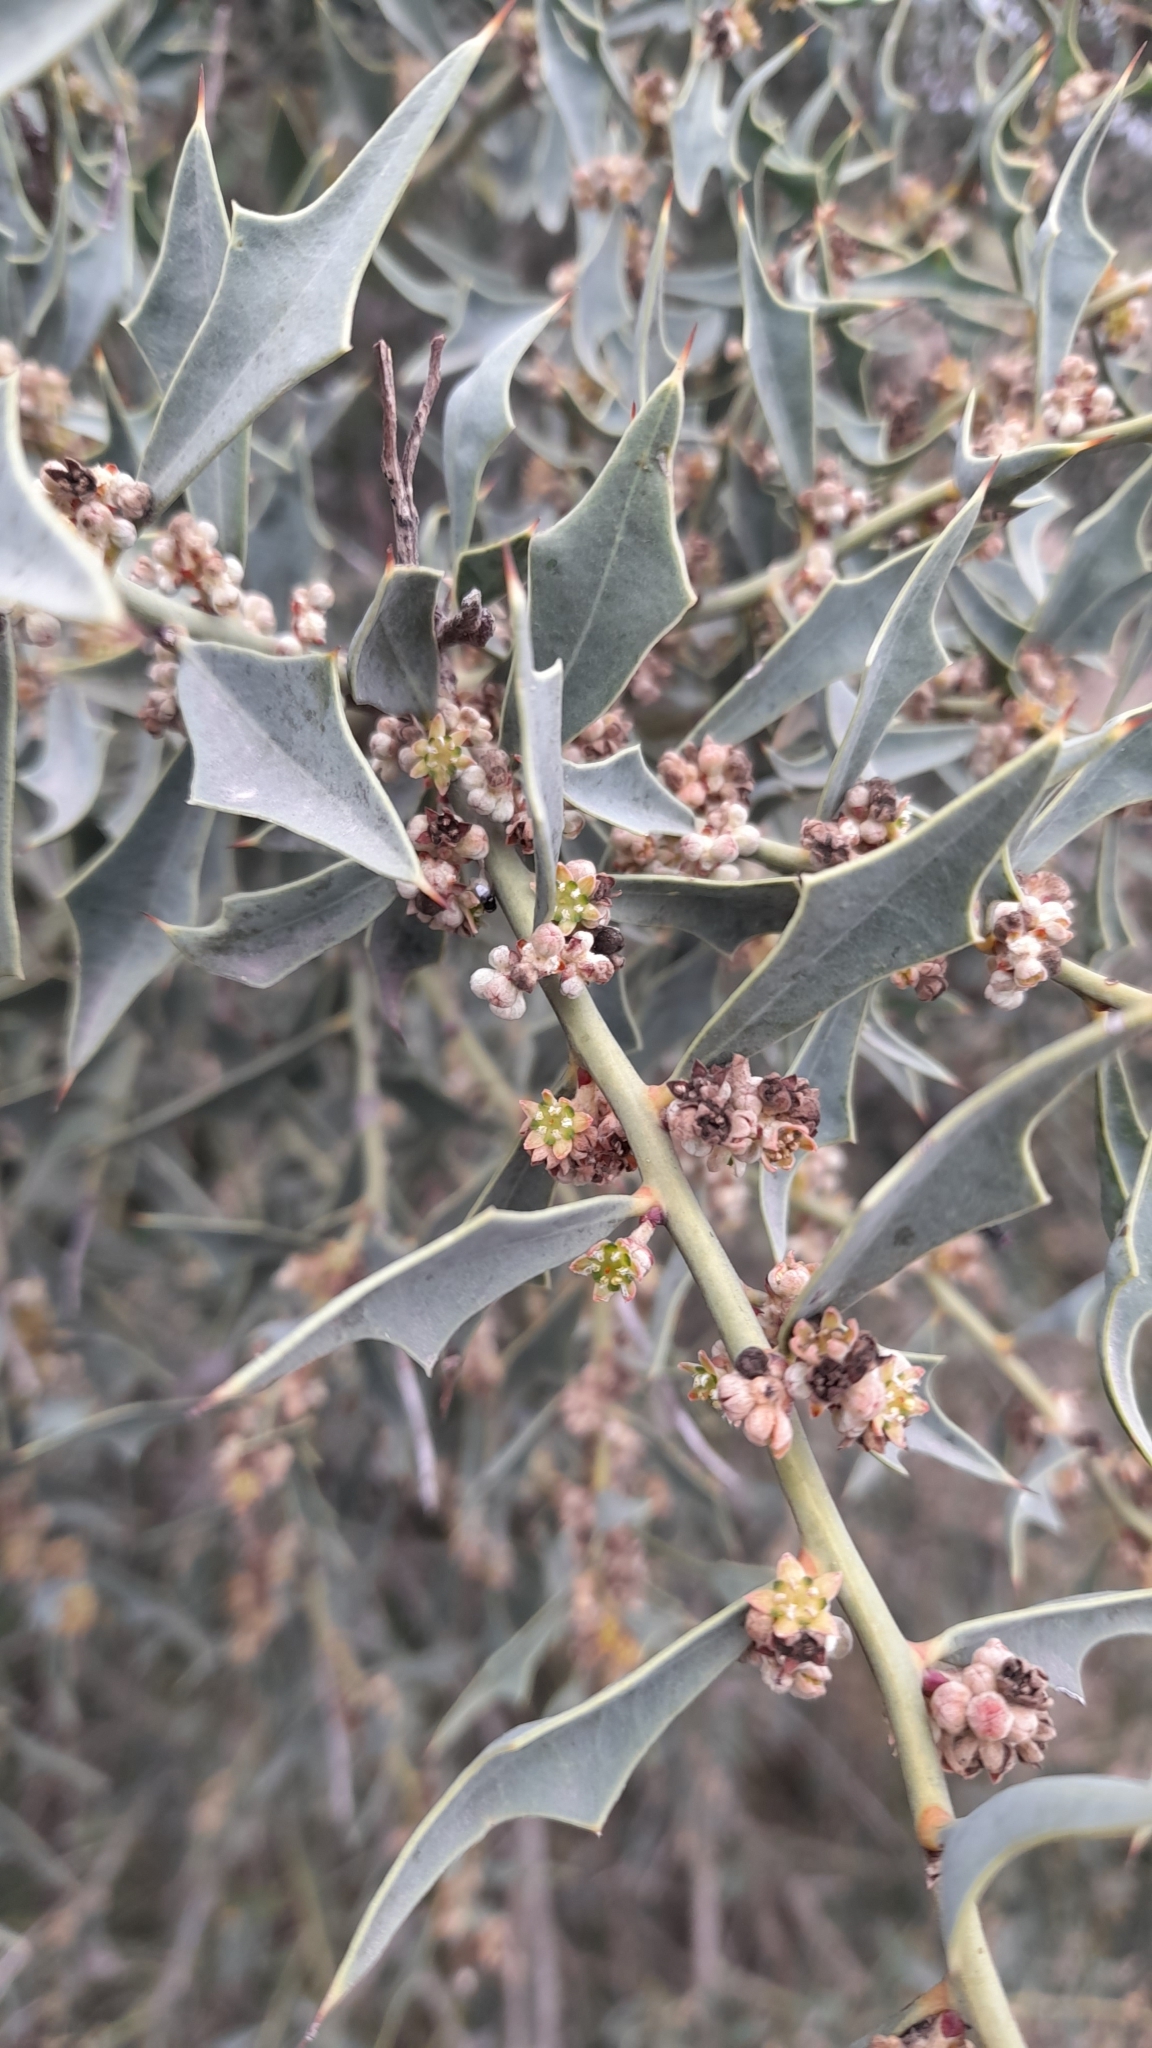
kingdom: Plantae
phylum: Tracheophyta
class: Magnoliopsida
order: Santalales
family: Cervantesiaceae
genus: Jodina
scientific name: Jodina rhombifolia
